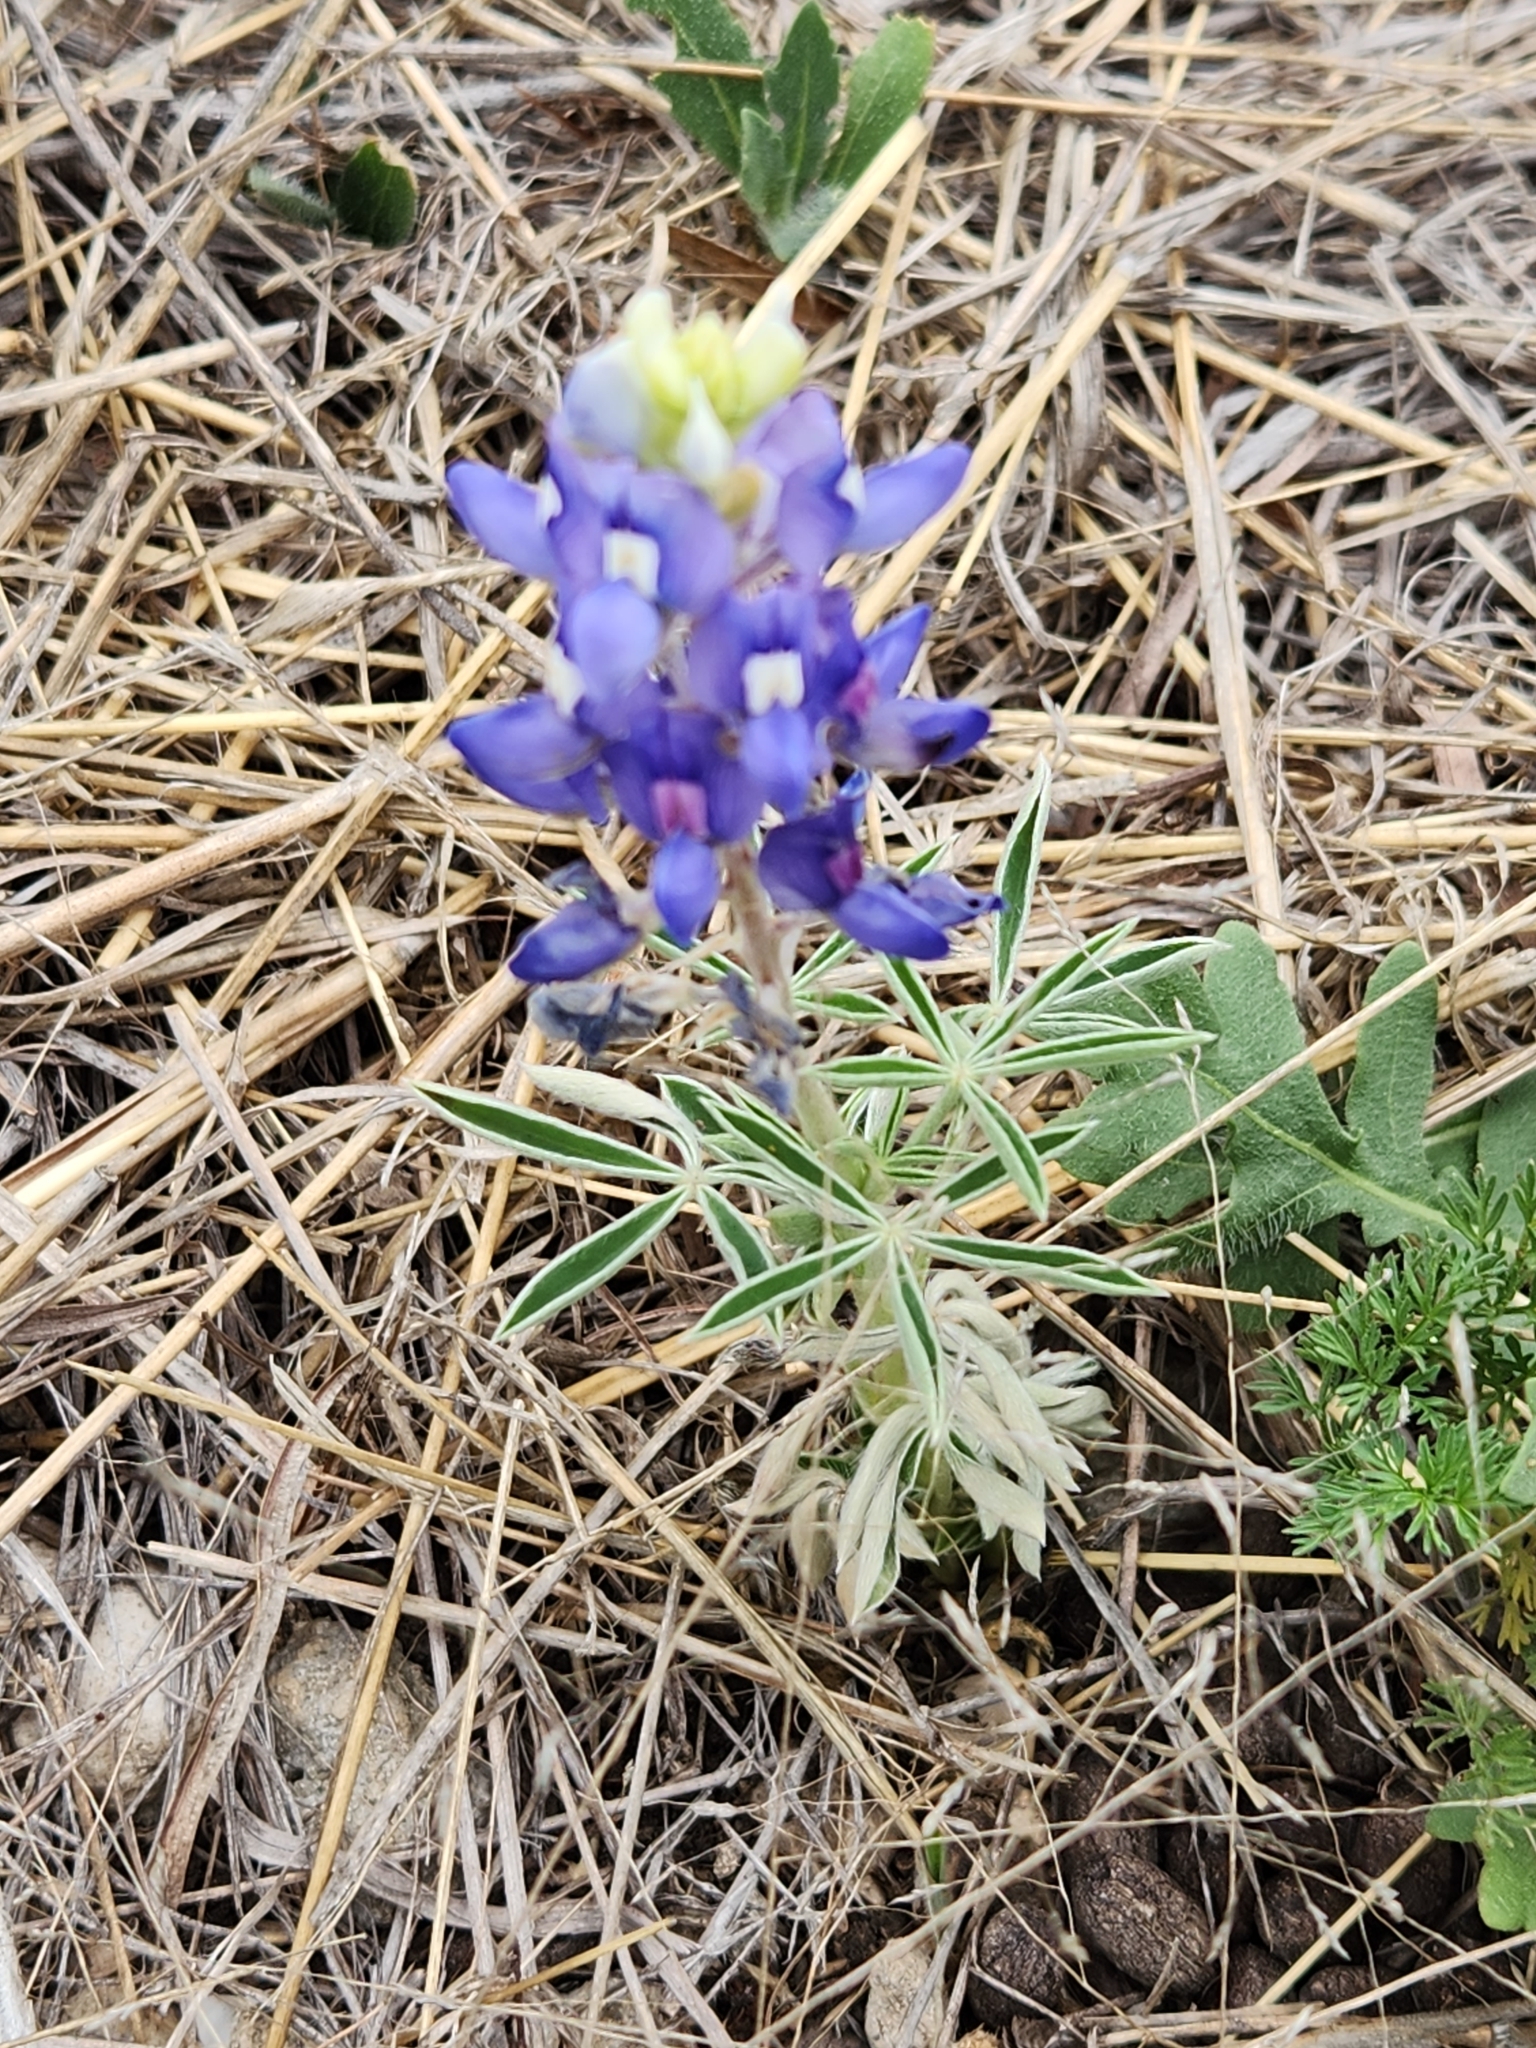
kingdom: Plantae
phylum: Tracheophyta
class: Magnoliopsida
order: Fabales
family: Fabaceae
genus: Lupinus
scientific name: Lupinus texensis
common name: Texas bluebonnet
